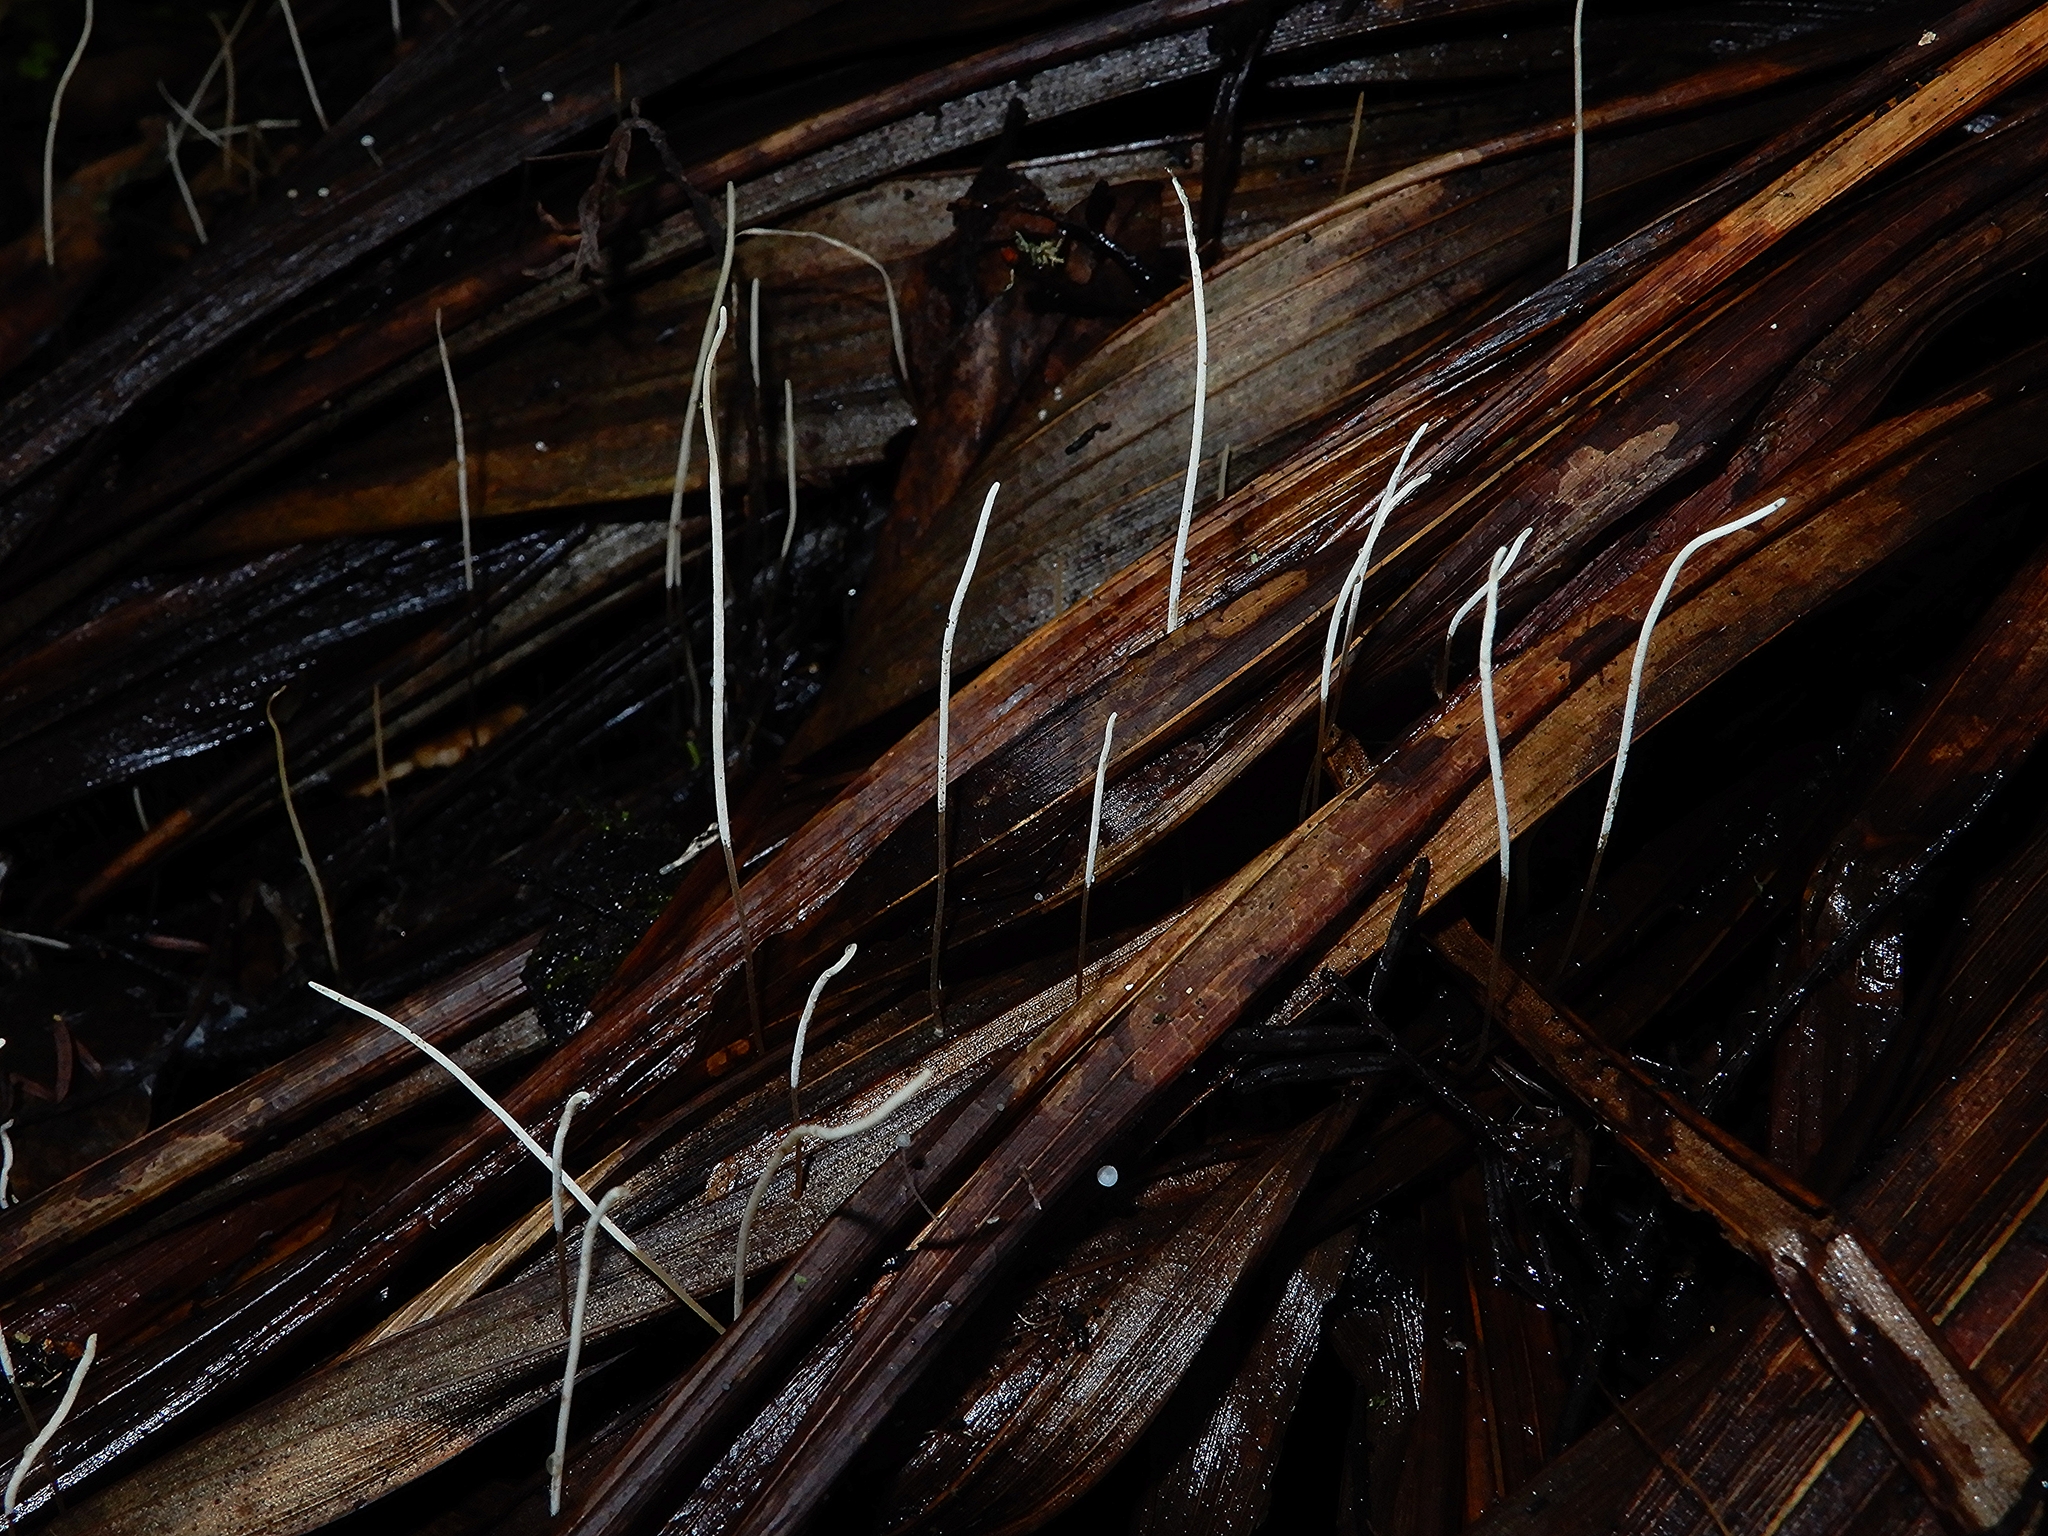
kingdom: Fungi
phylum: Basidiomycota
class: Agaricomycetes
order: Agaricales
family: Typhulaceae
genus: Macrotyphula
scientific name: Macrotyphula defibulata
